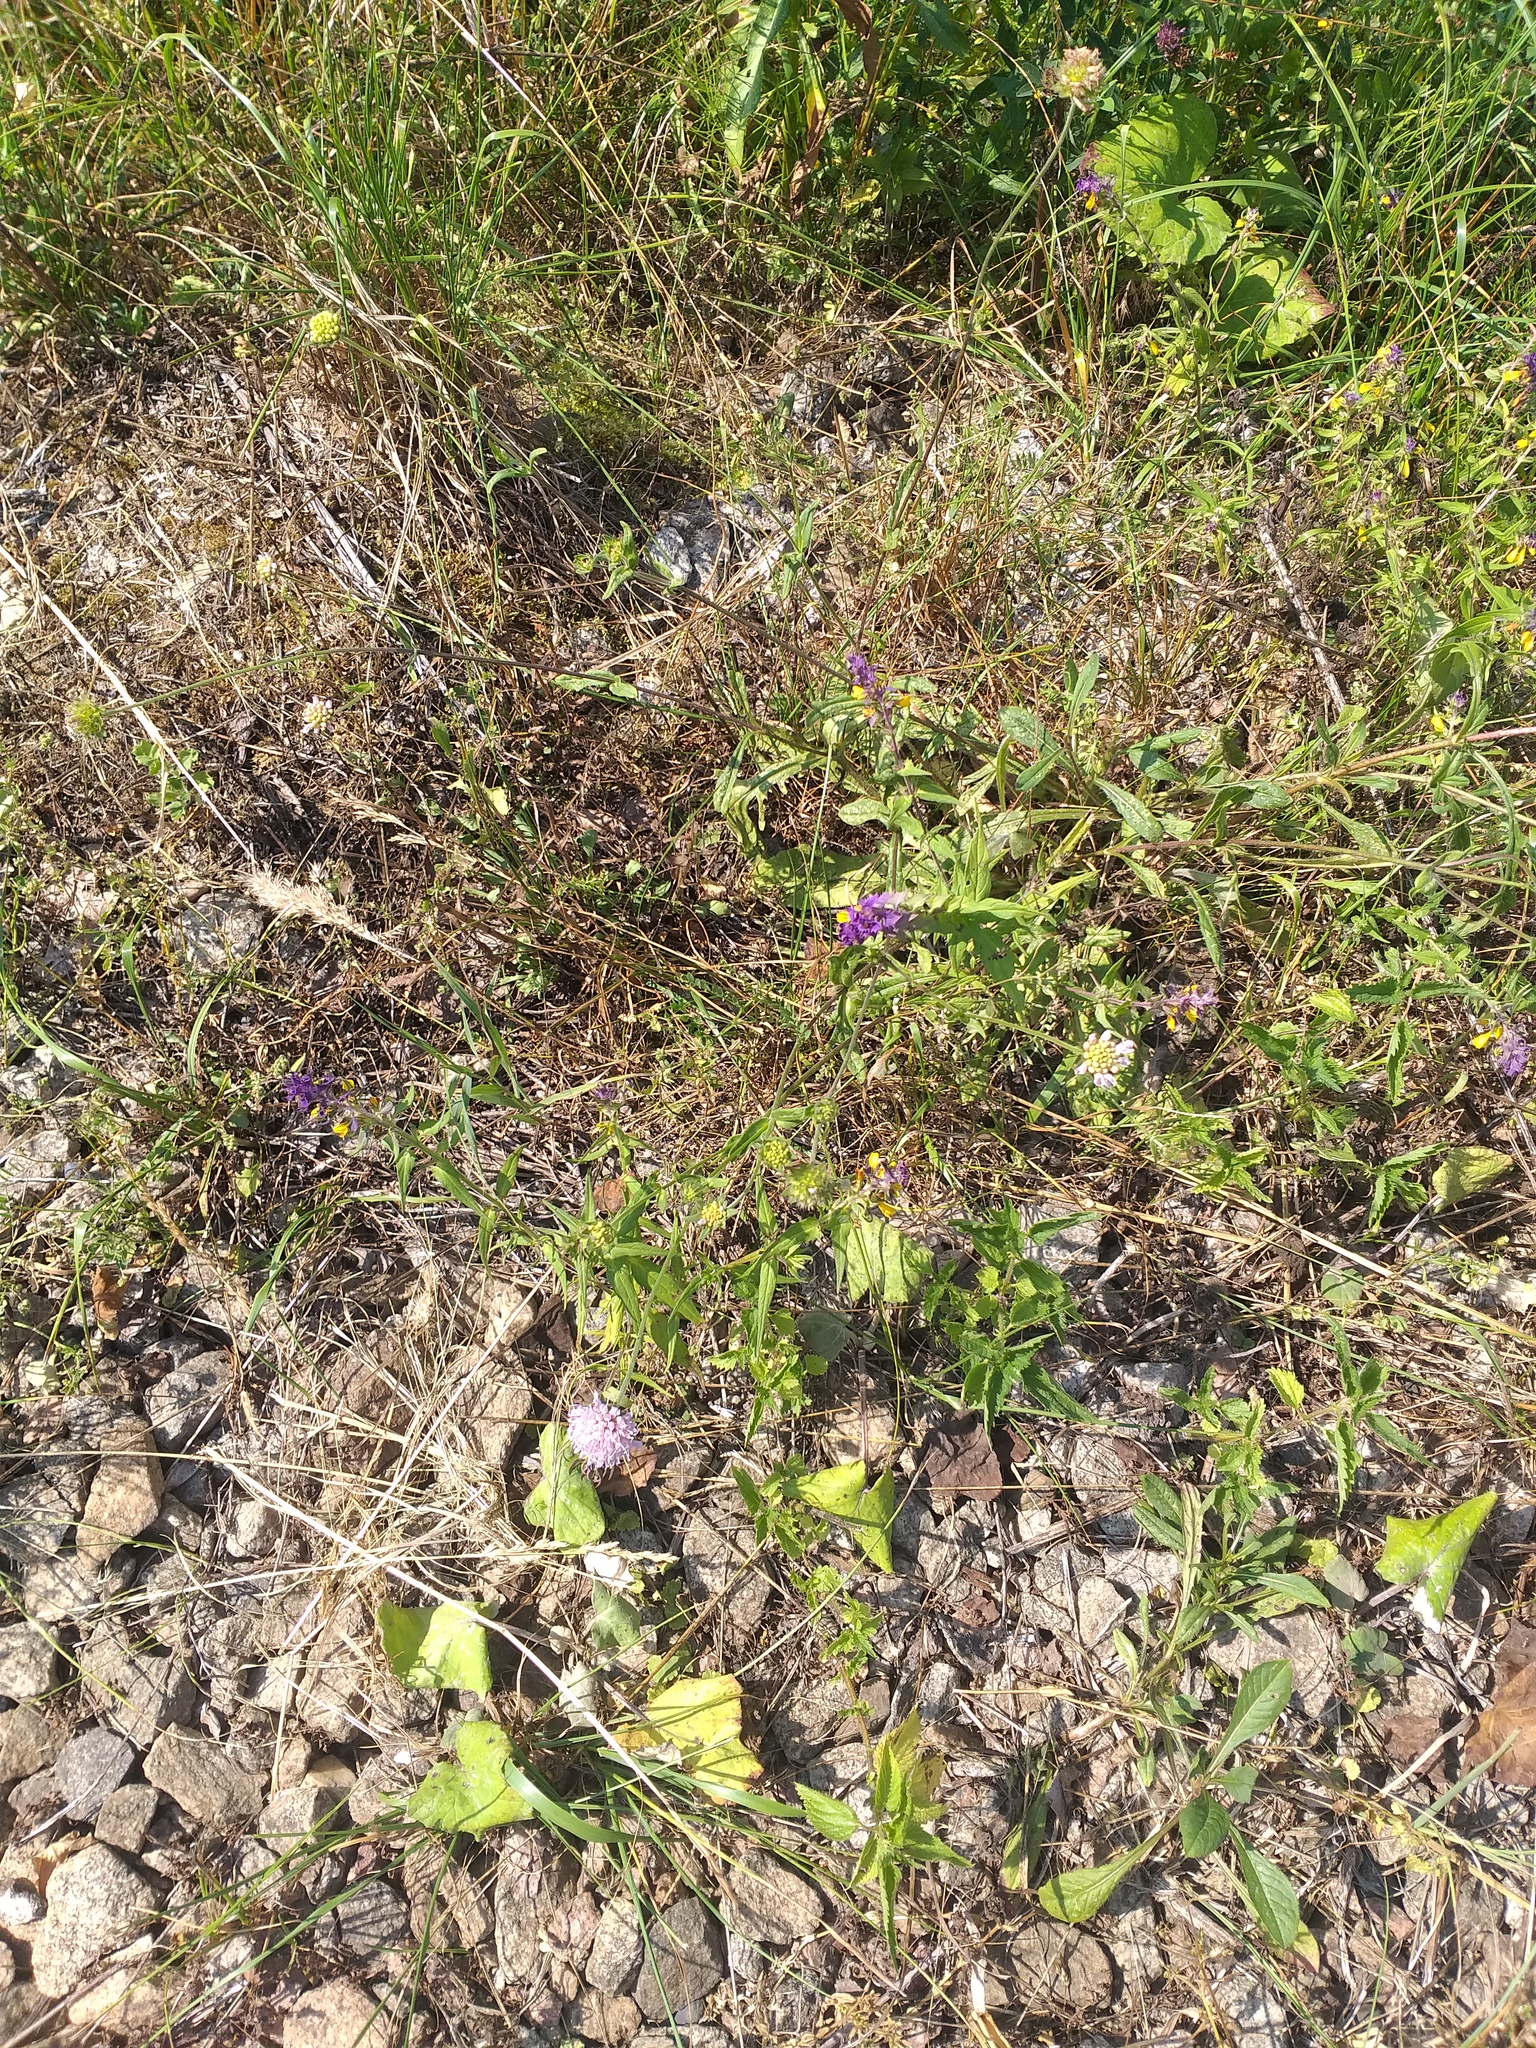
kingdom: Plantae
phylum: Tracheophyta
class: Magnoliopsida
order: Dipsacales
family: Caprifoliaceae
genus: Knautia
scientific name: Knautia arvensis
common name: Field scabiosa
